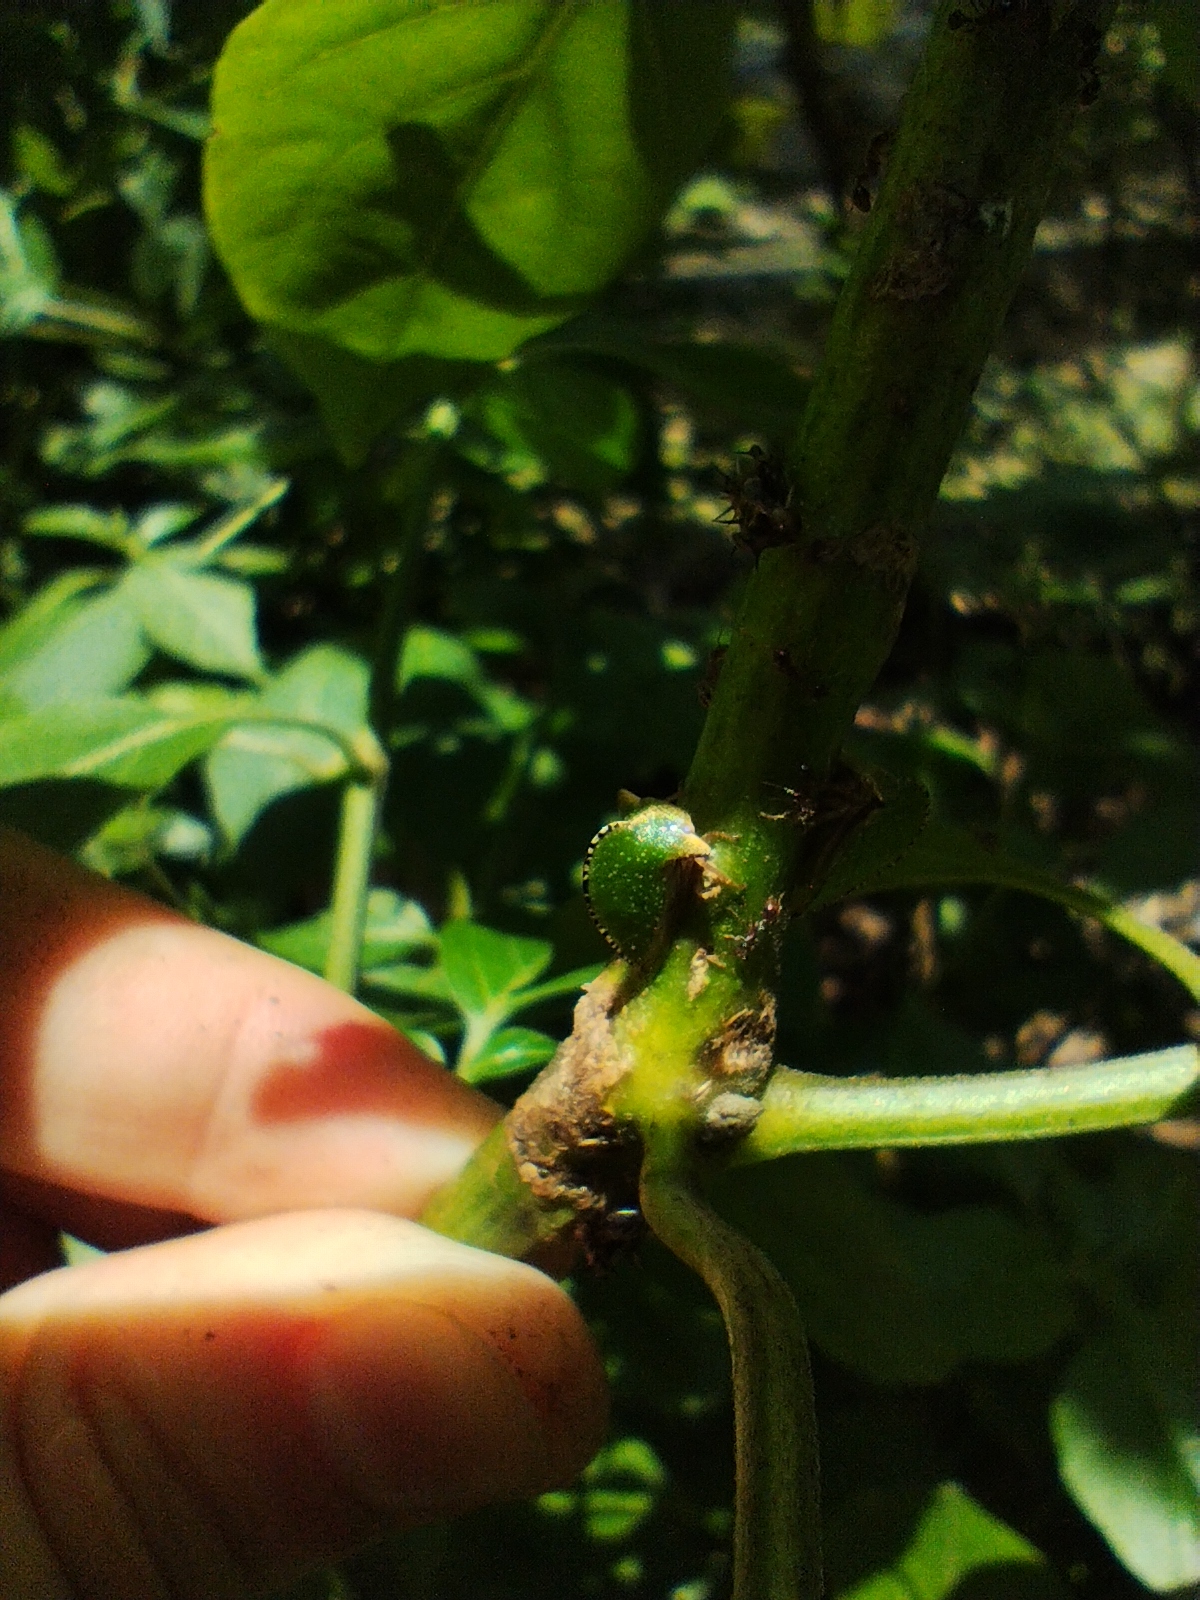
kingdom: Animalia
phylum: Arthropoda
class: Insecta
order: Hemiptera
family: Membracidae
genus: Antianthe
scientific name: Antianthe expansa
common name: Keeled tree hopper
